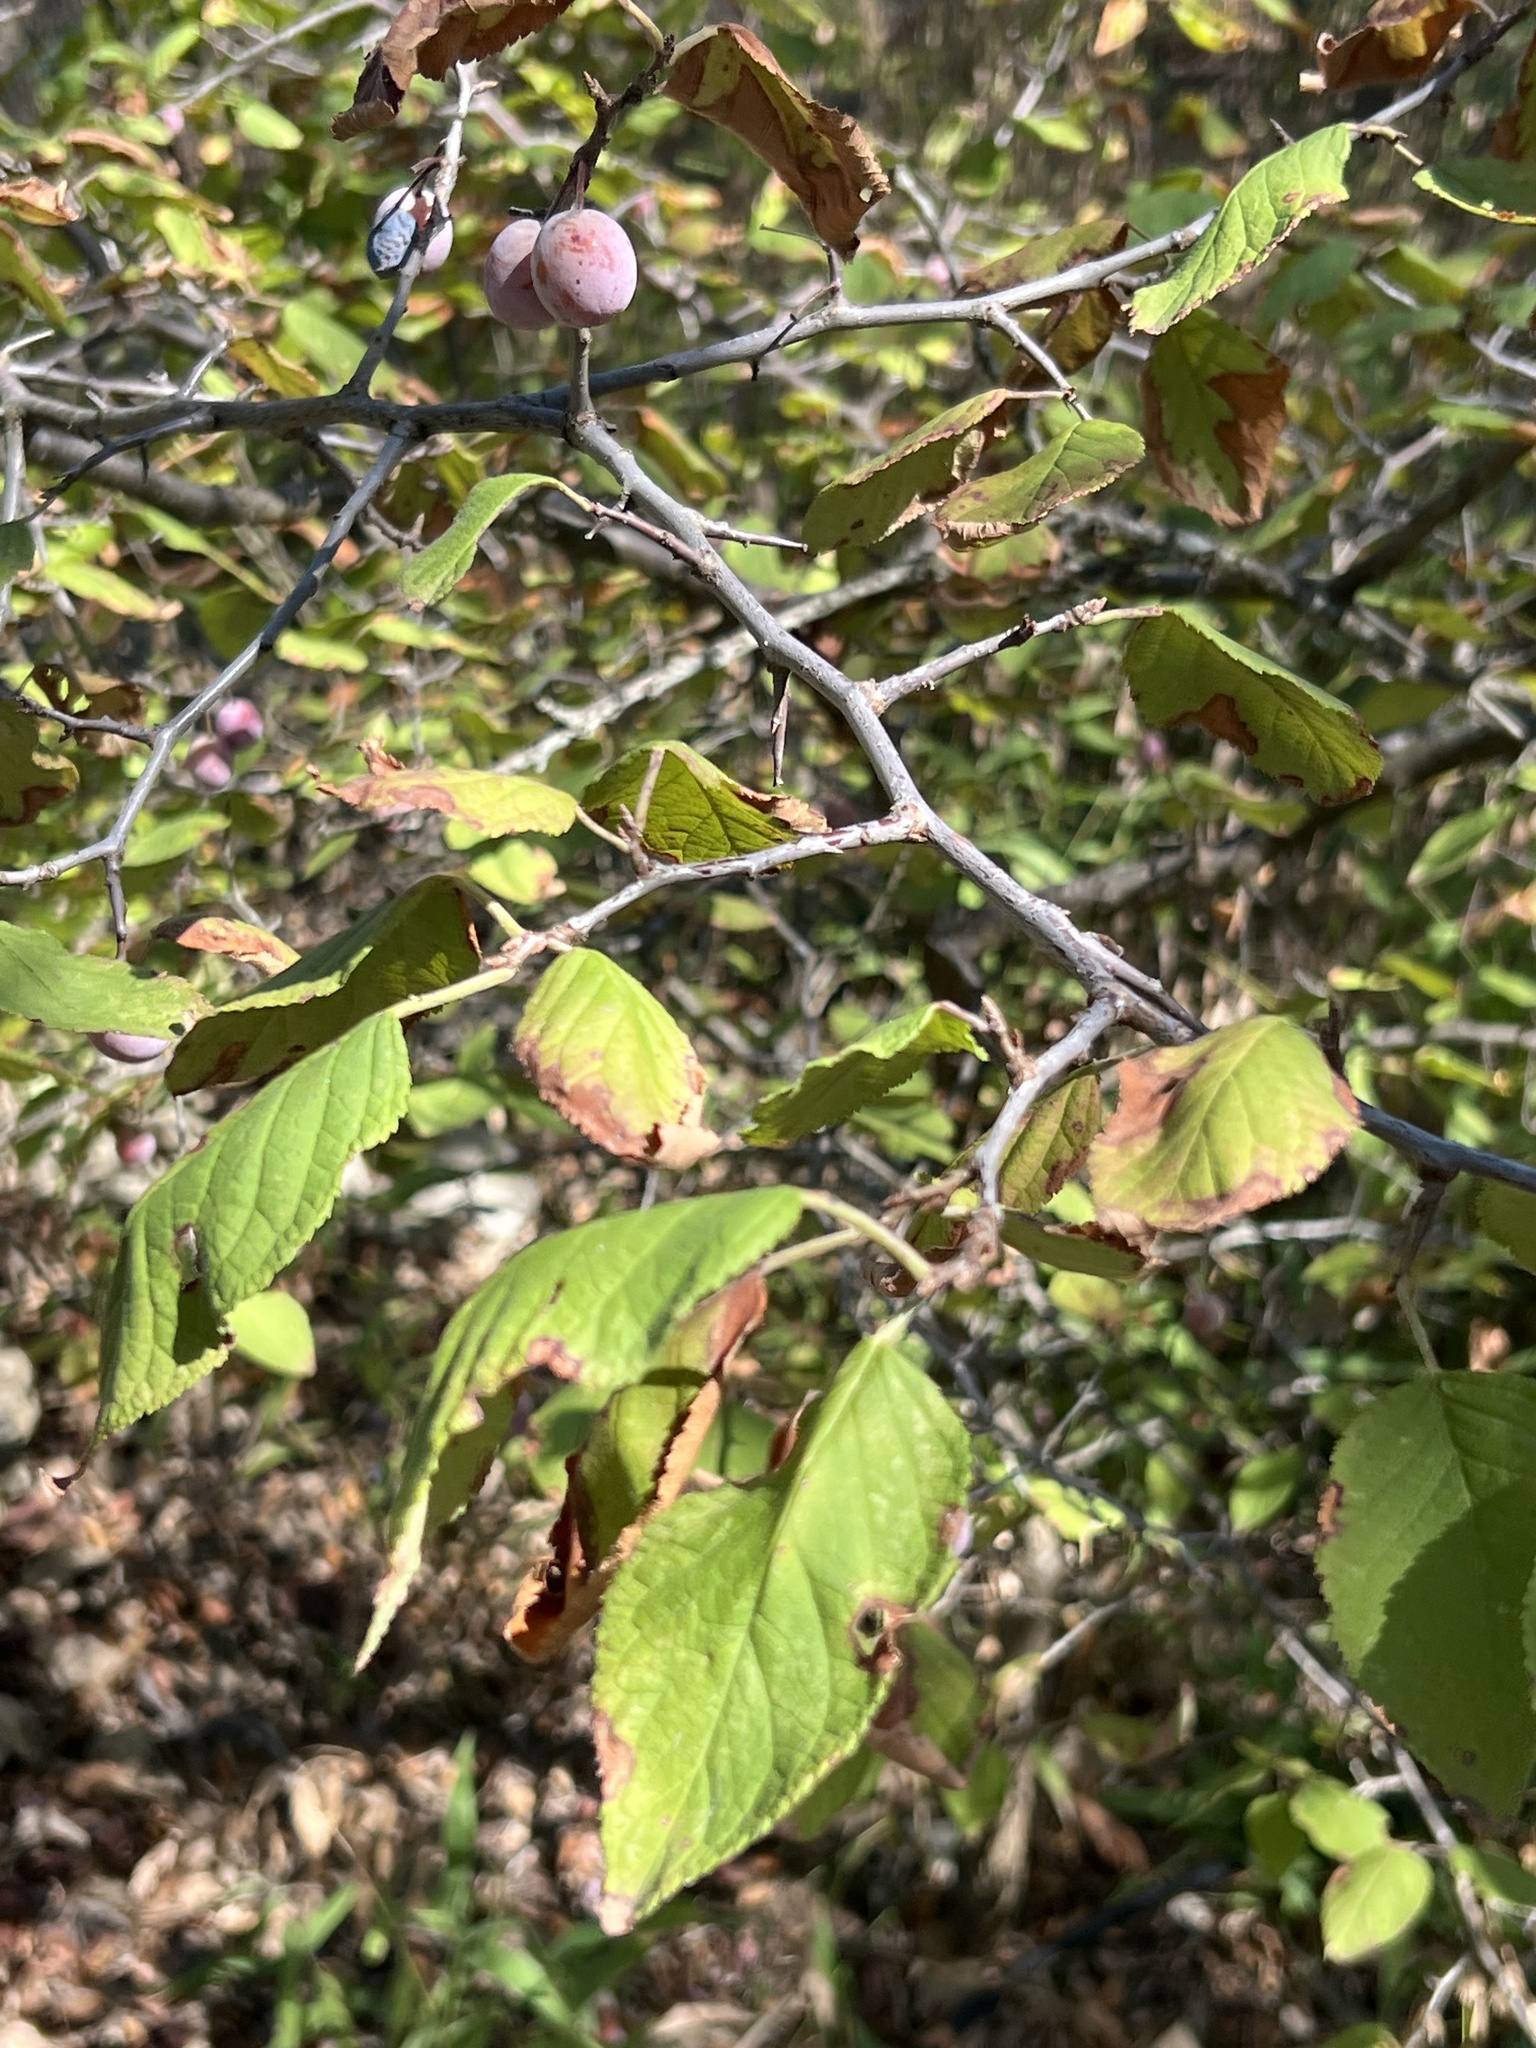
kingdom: Plantae
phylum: Tracheophyta
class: Magnoliopsida
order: Rosales
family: Rosaceae
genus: Prunus
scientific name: Prunus mexicana
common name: Mexican plum
